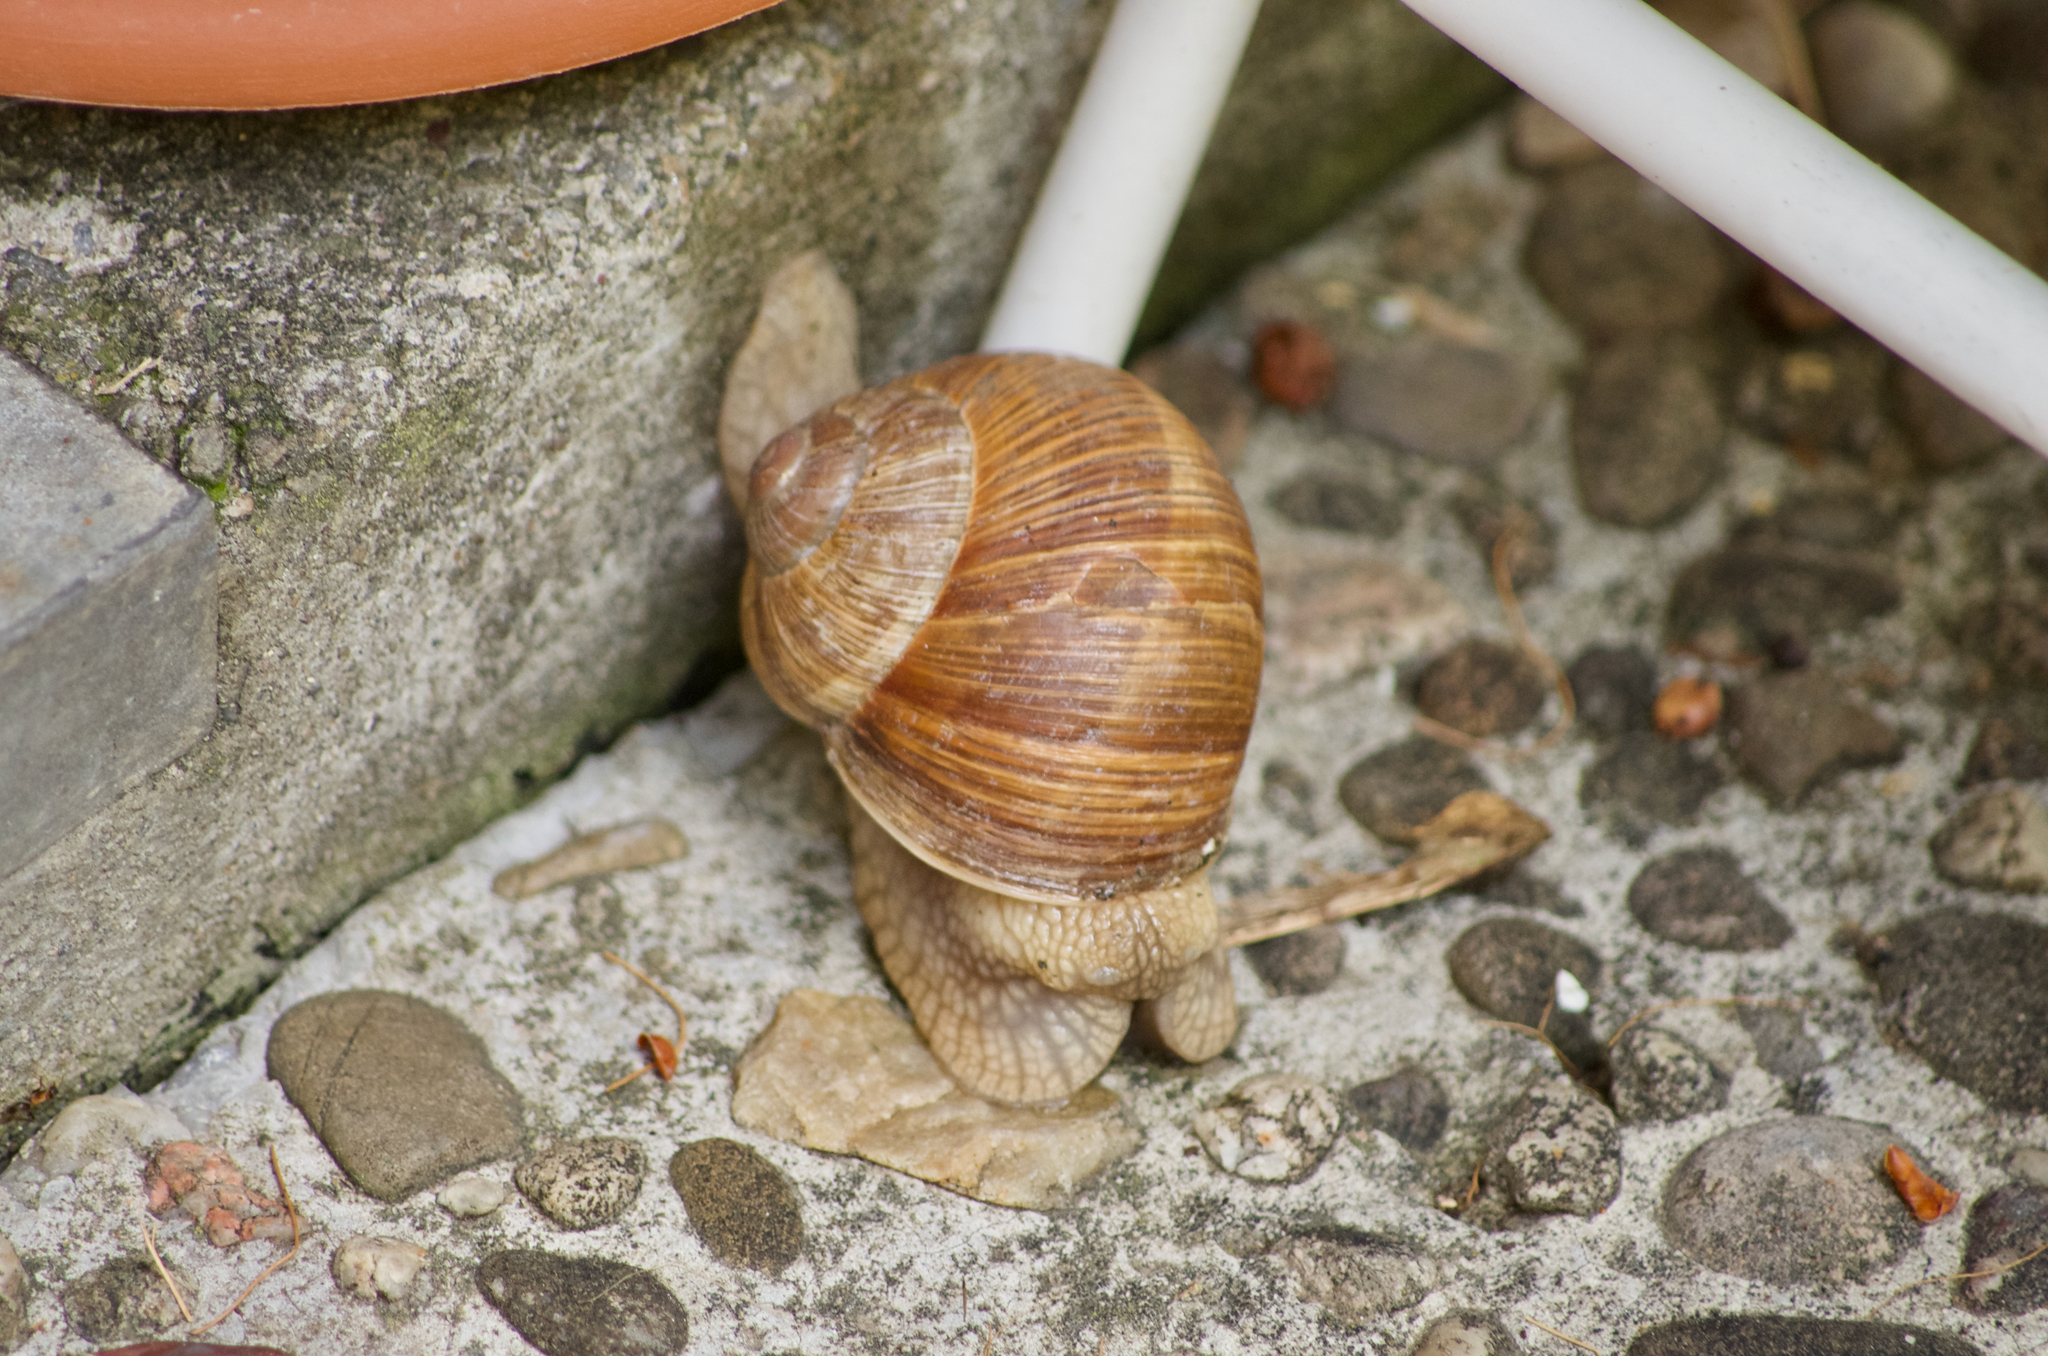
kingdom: Animalia
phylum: Mollusca
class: Gastropoda
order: Stylommatophora
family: Helicidae
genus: Helix
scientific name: Helix pomatia
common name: Roman snail
